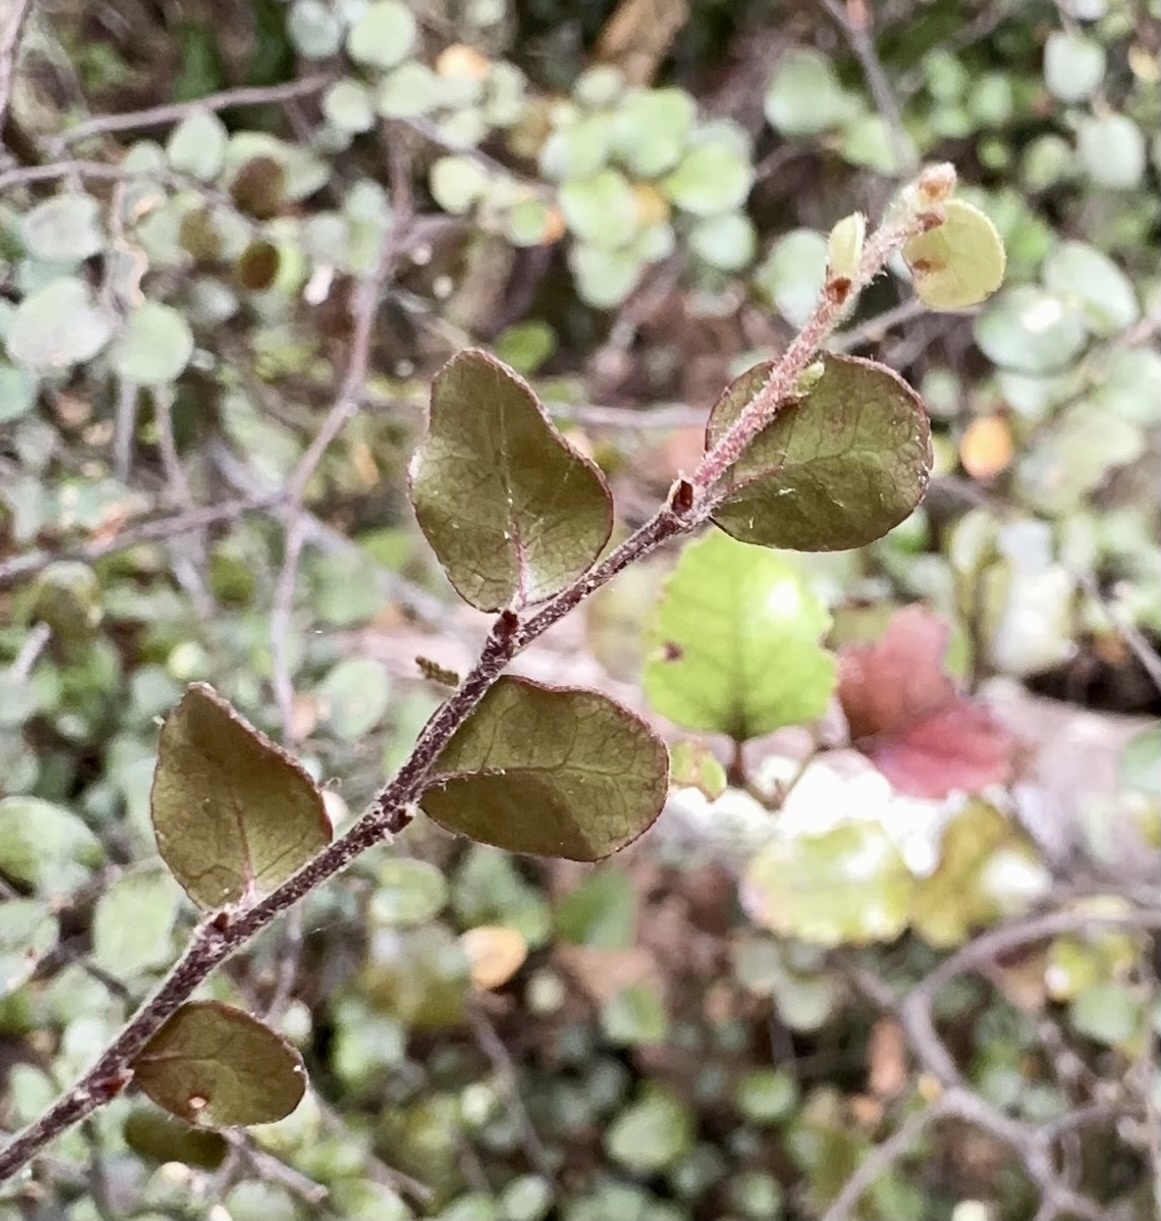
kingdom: Plantae
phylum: Tracheophyta
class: Magnoliopsida
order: Fagales
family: Nothofagaceae
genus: Nothofagus
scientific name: Nothofagus solandri
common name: Black beech
